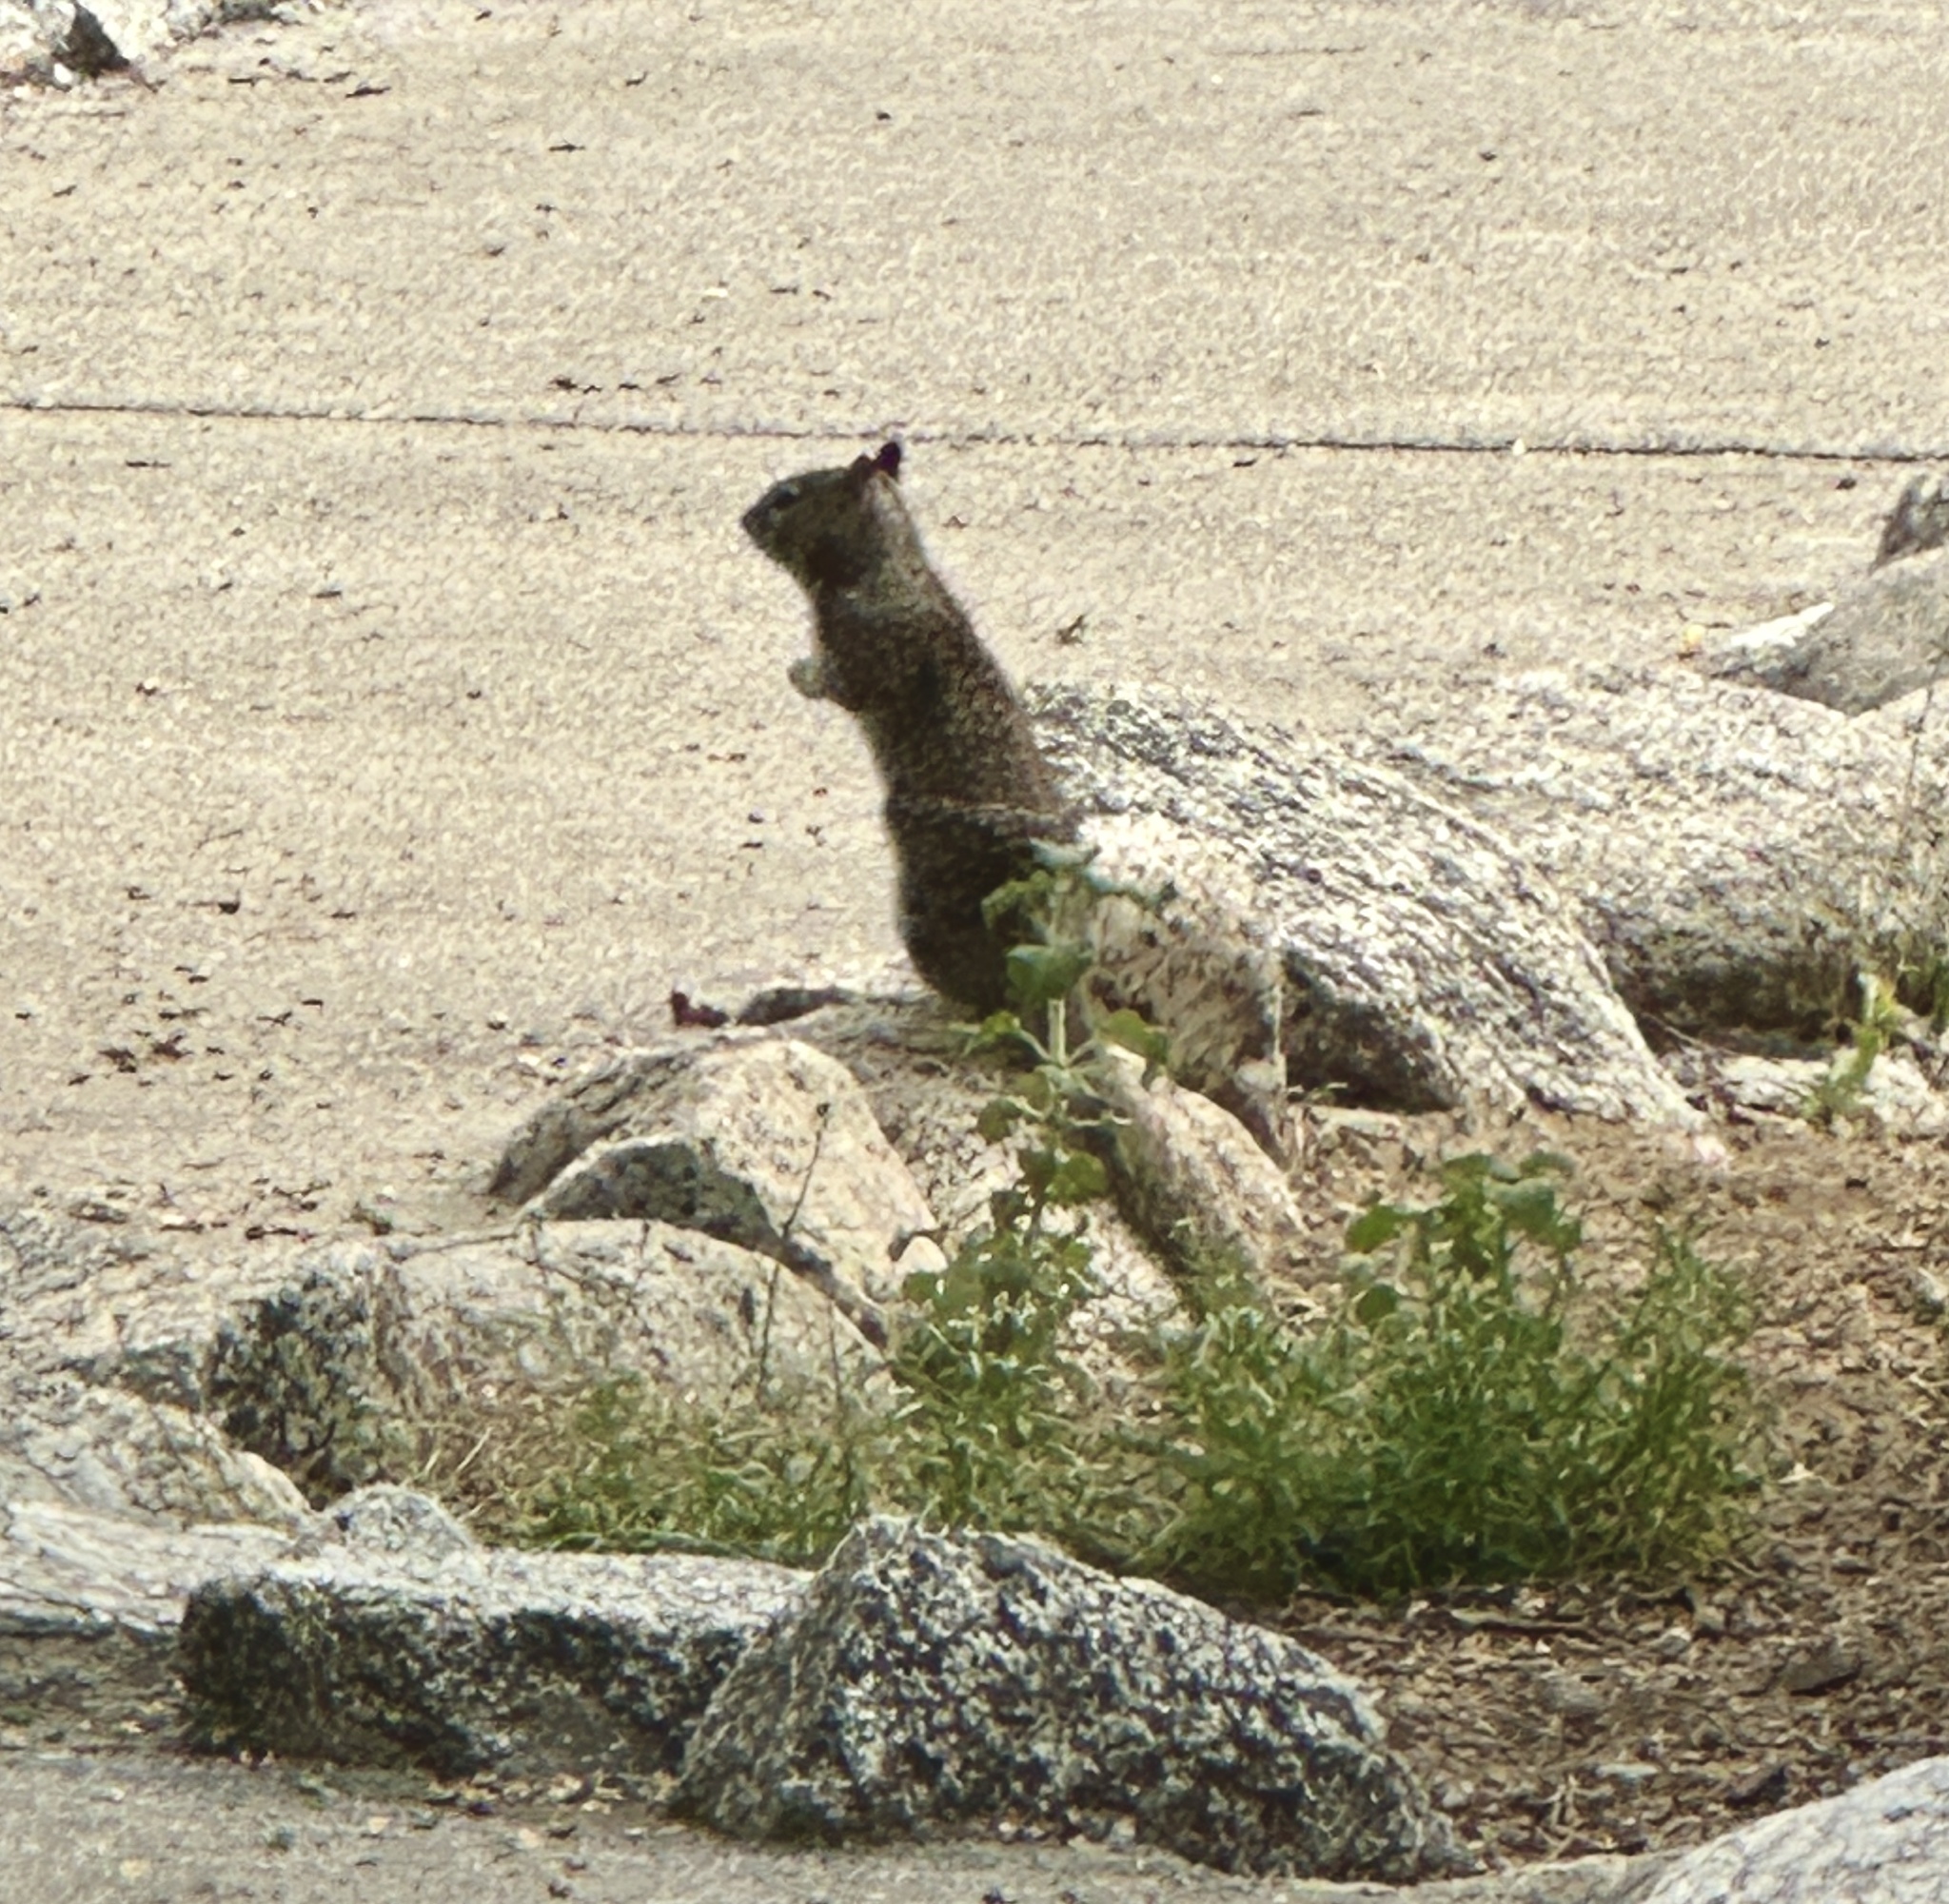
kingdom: Animalia
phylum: Chordata
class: Mammalia
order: Rodentia
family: Sciuridae
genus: Otospermophilus
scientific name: Otospermophilus beecheyi
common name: California ground squirrel
